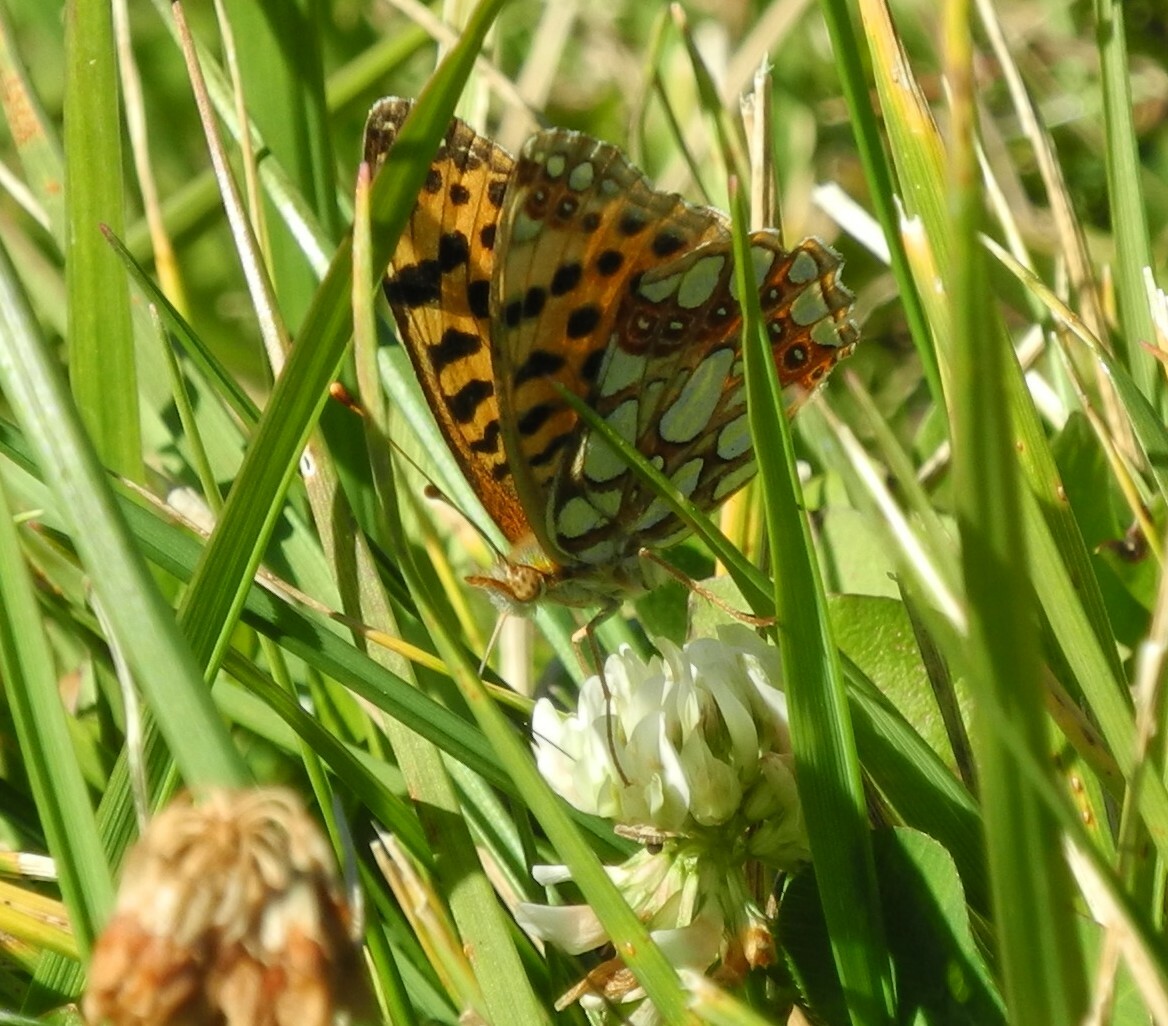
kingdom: Animalia
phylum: Arthropoda
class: Insecta
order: Lepidoptera
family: Nymphalidae
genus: Issoria
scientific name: Issoria lathonia
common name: Queen of spain fritillary
